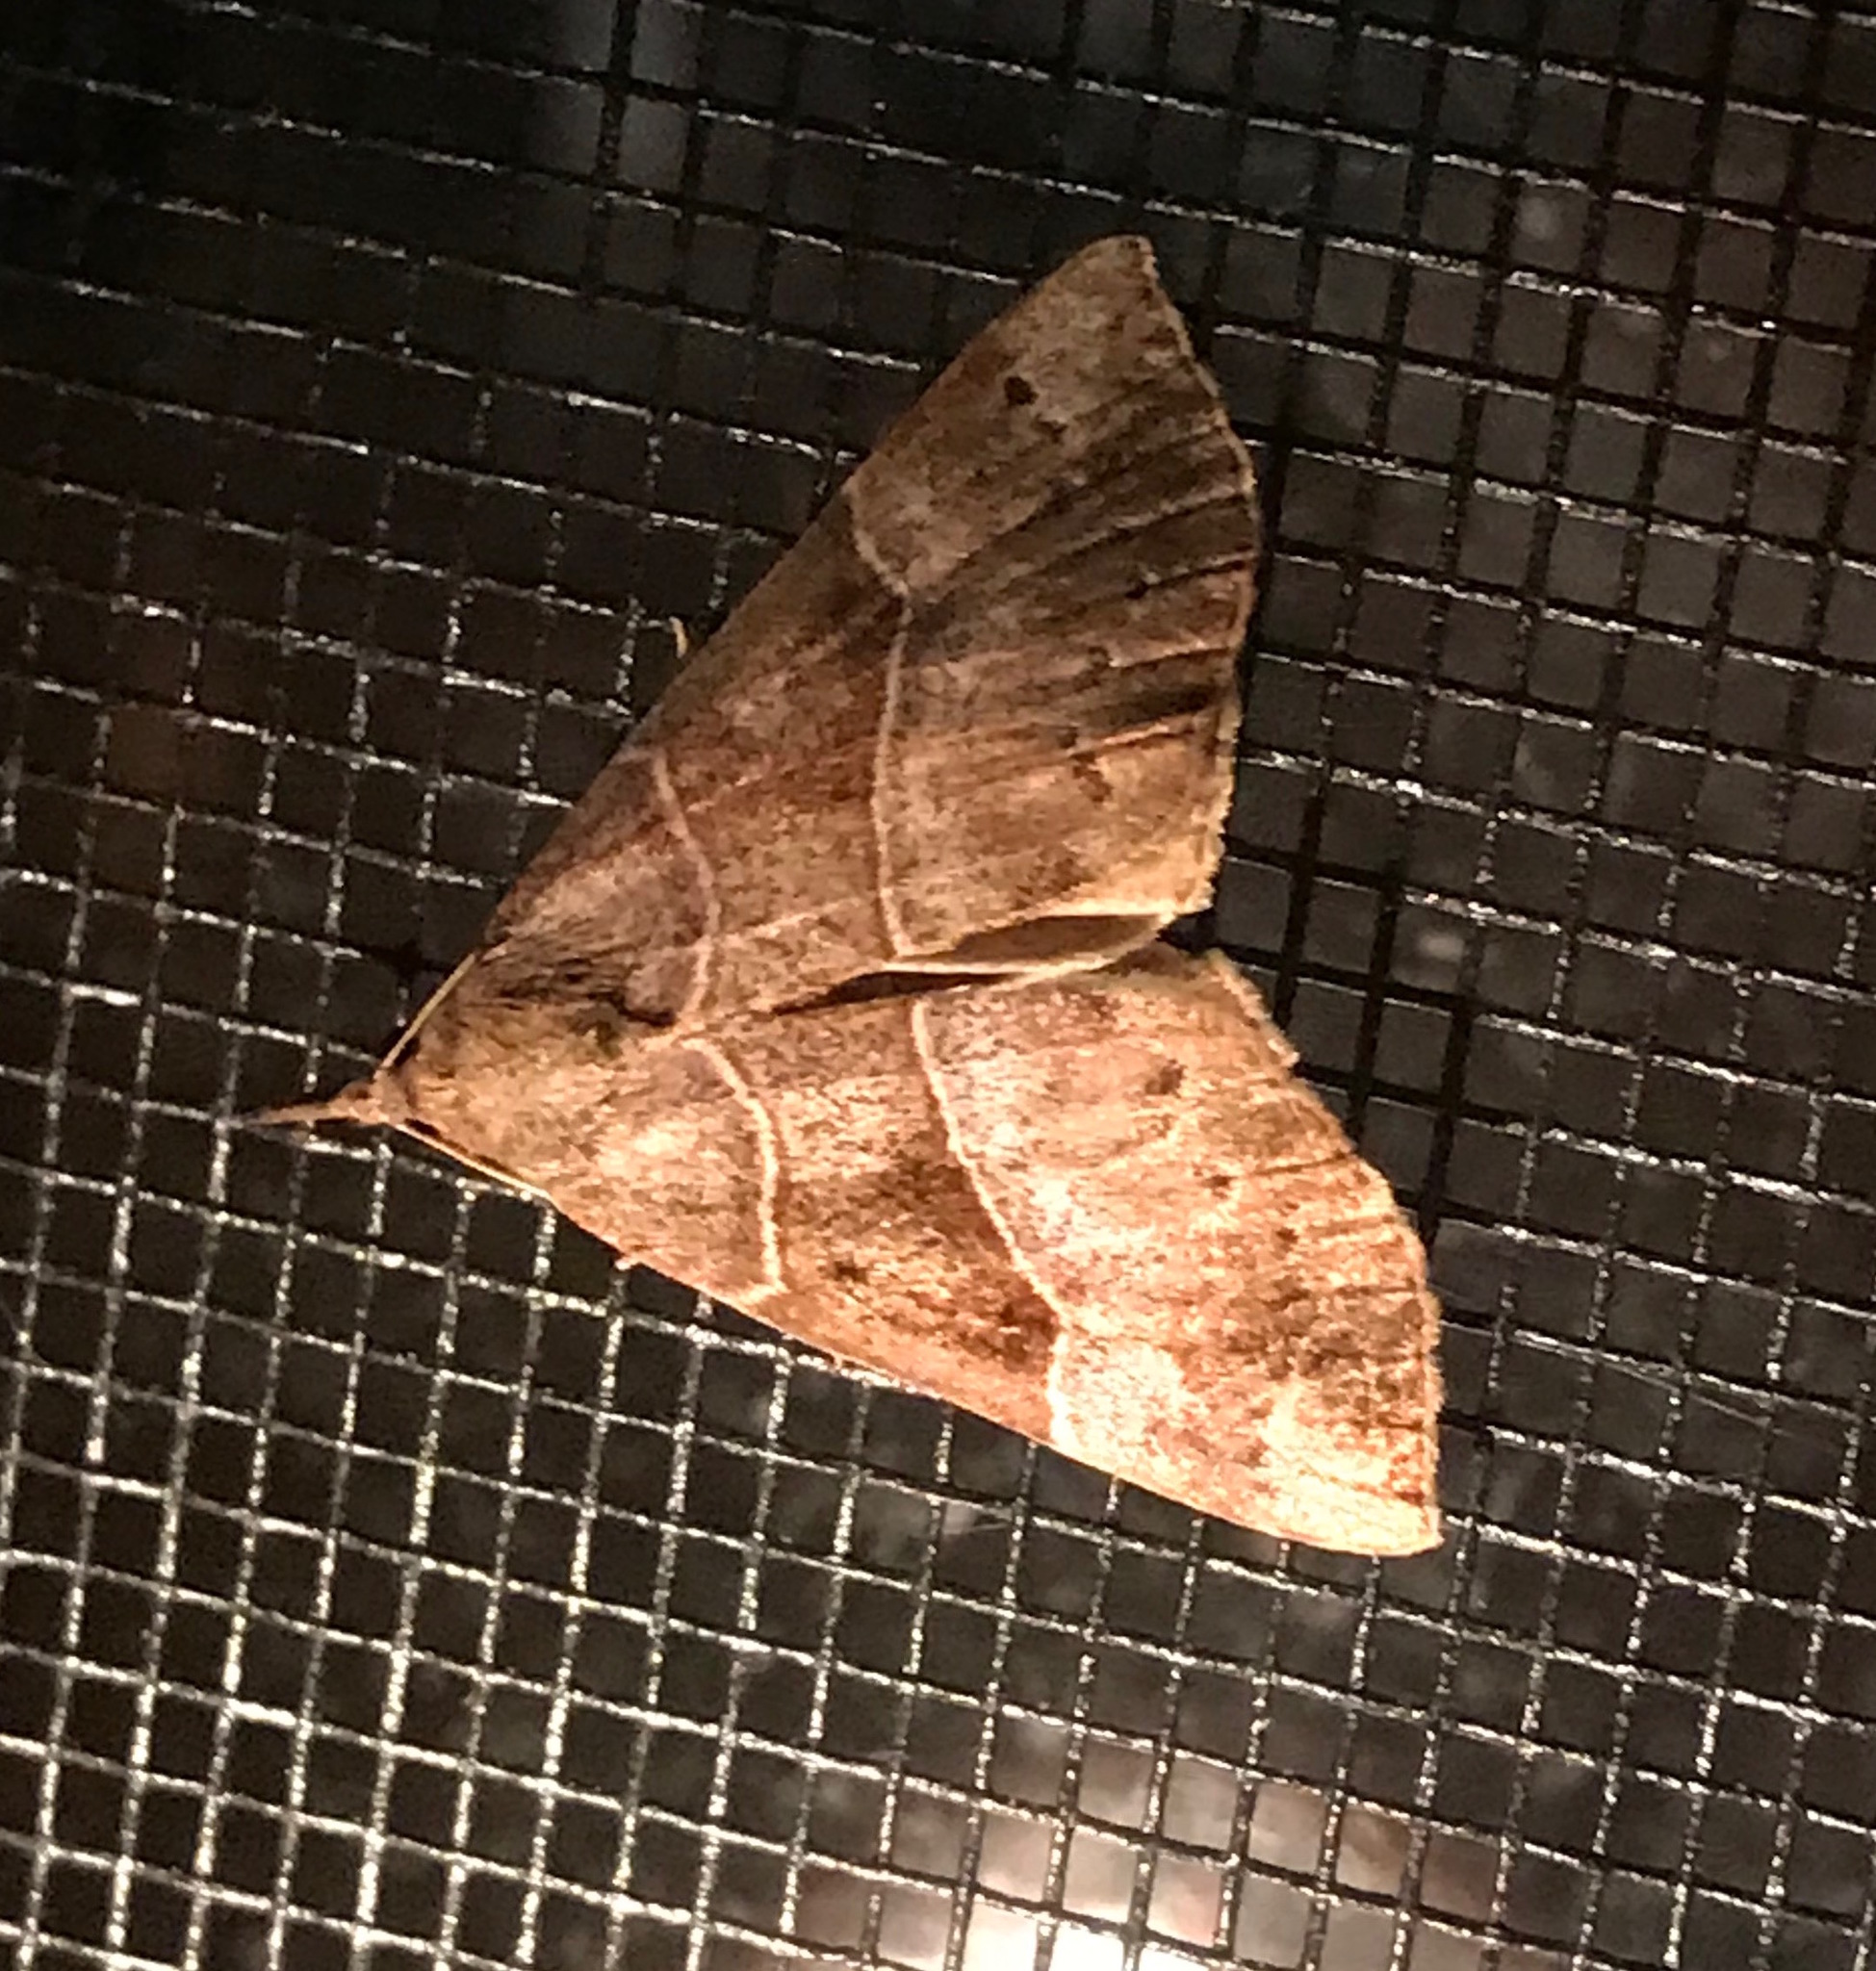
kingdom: Animalia
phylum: Arthropoda
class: Insecta
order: Lepidoptera
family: Erebidae
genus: Hypena
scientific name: Hypena deceptalis
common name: Deceptive snout
